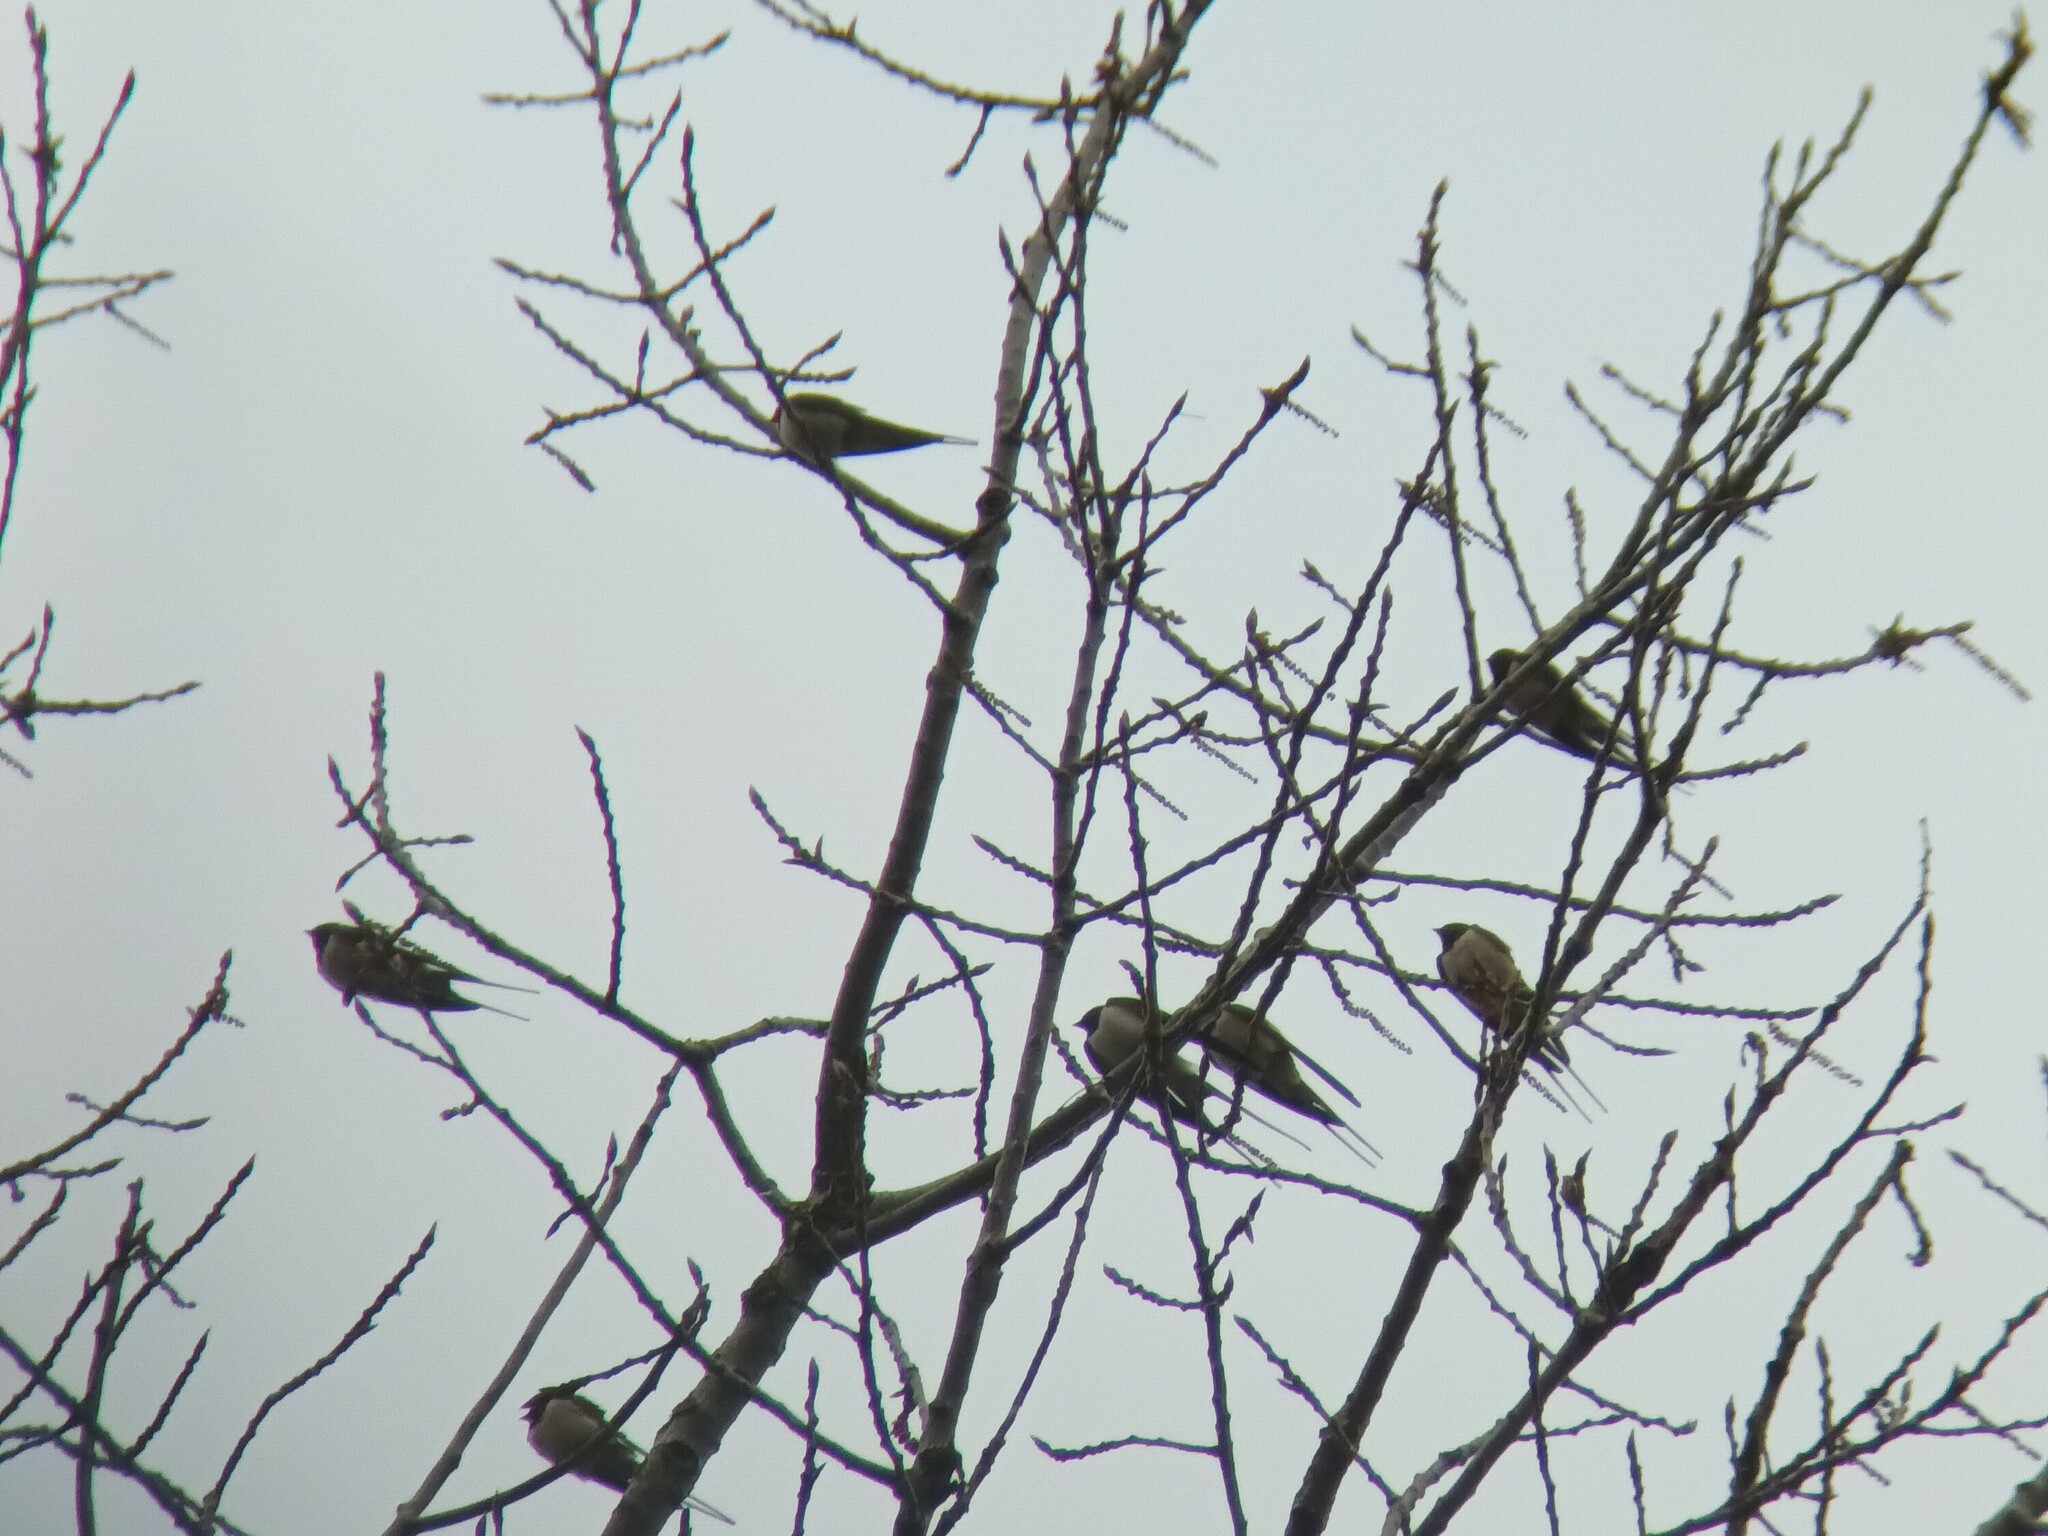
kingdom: Animalia
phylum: Chordata
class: Aves
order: Passeriformes
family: Hirundinidae
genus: Hirundo
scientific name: Hirundo rustica
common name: Barn swallow
